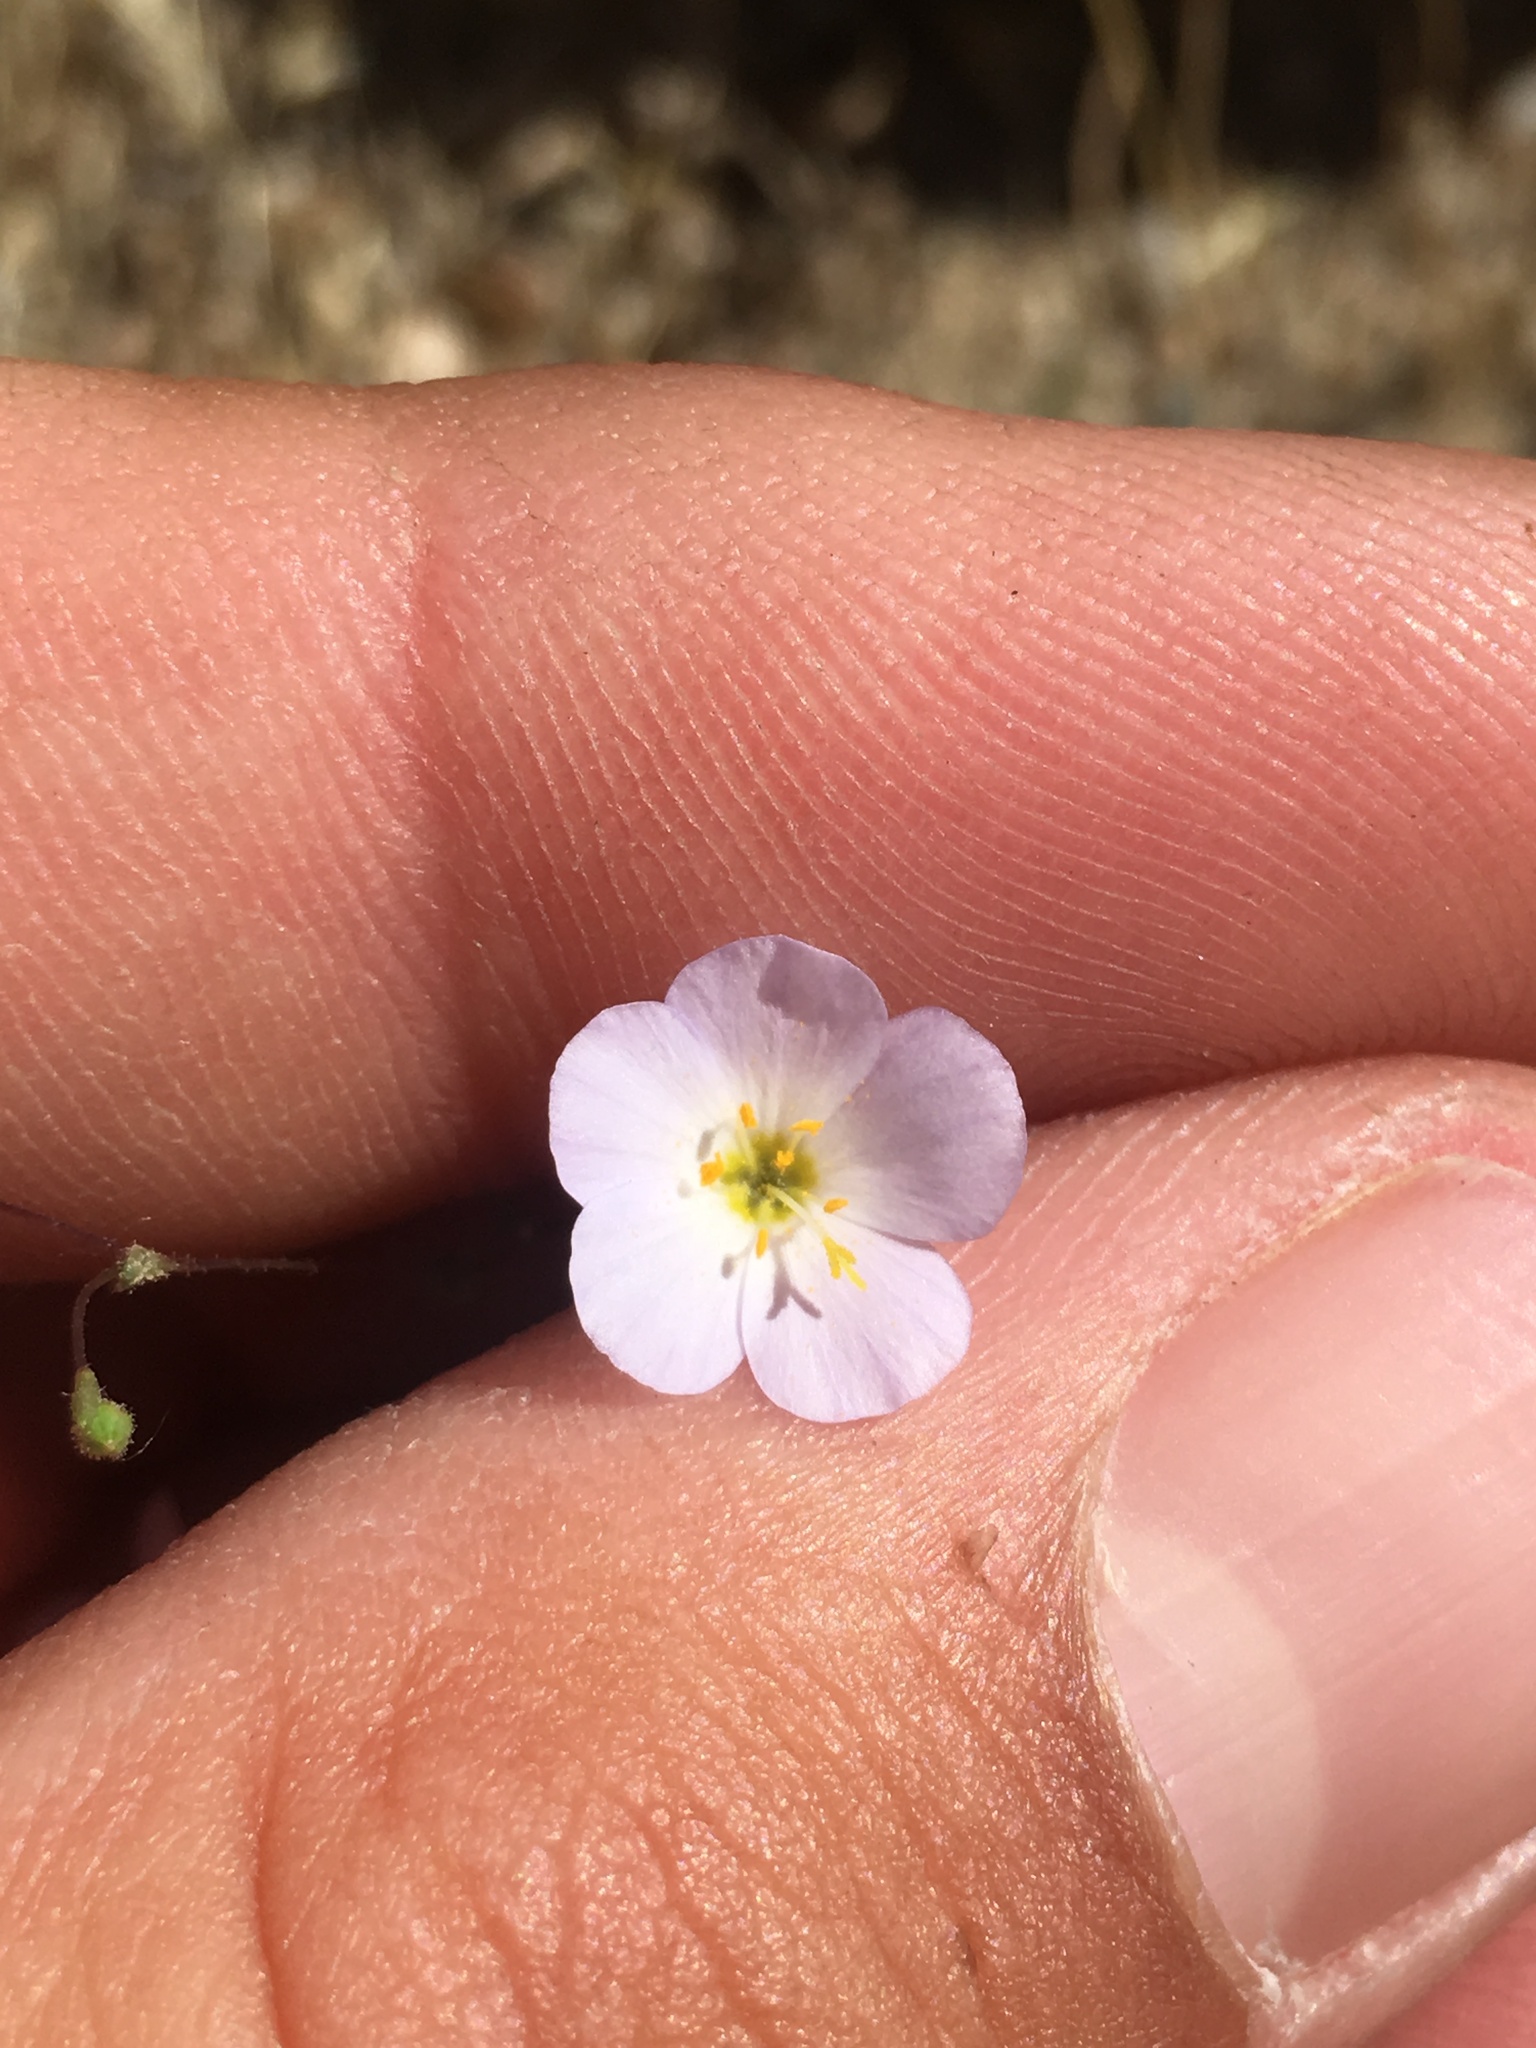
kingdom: Plantae
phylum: Tracheophyta
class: Magnoliopsida
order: Ericales
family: Polemoniaceae
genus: Leptosiphon
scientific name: Leptosiphon liniflorus
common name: Narrowflower flaxflower
